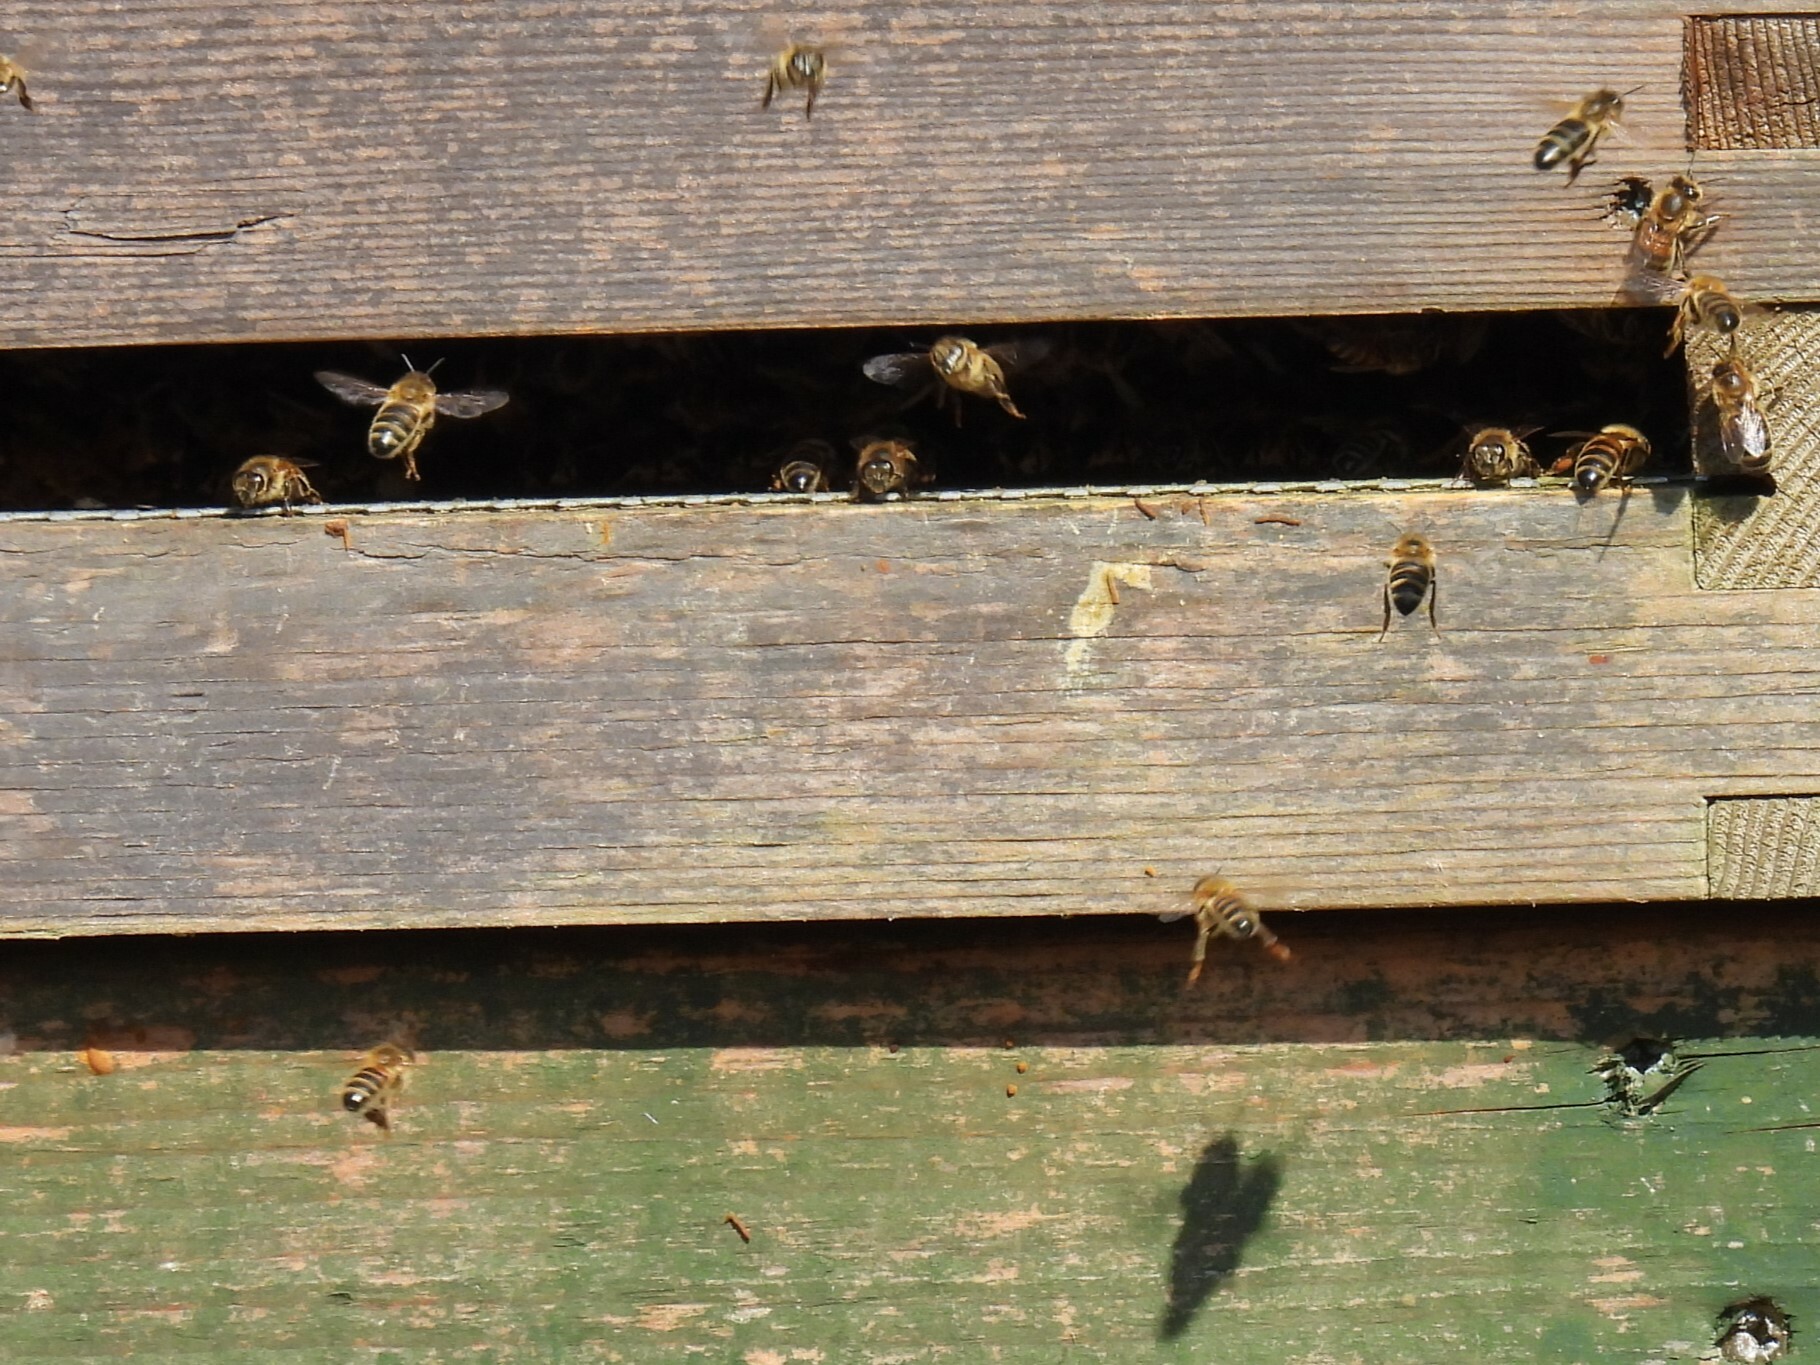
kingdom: Animalia
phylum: Arthropoda
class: Insecta
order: Hymenoptera
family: Apidae
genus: Apis
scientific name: Apis mellifera
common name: Honey bee
